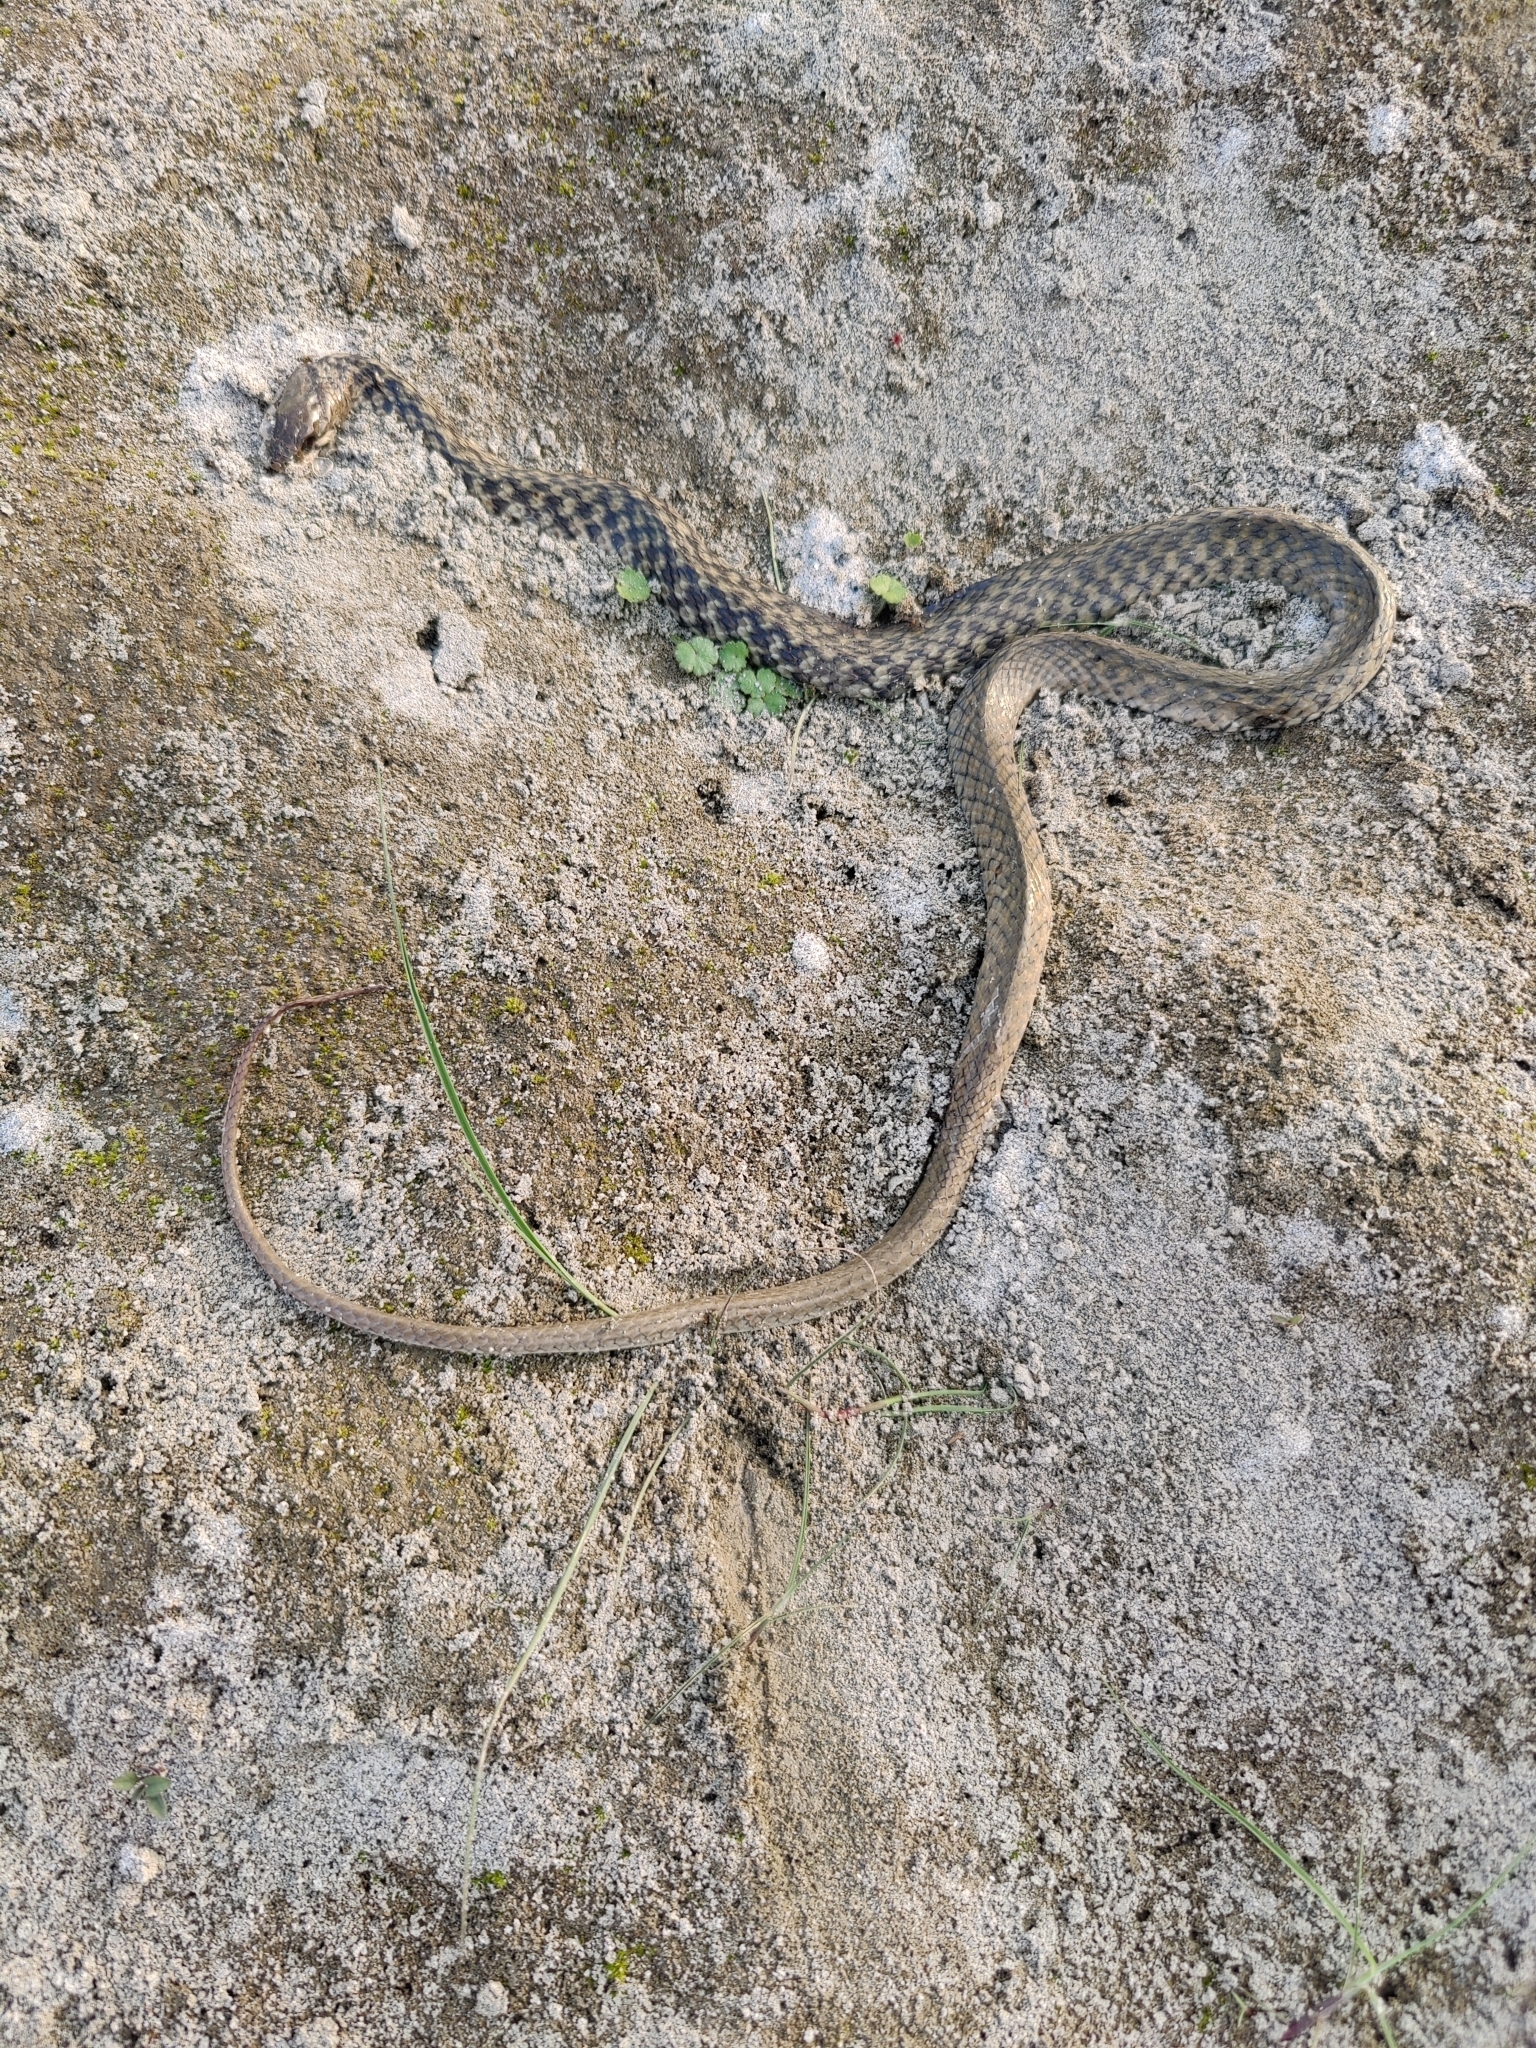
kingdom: Animalia
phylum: Chordata
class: Squamata
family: Colubridae
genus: Fowlea
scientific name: Fowlea piscator
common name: Asiatic water snake
